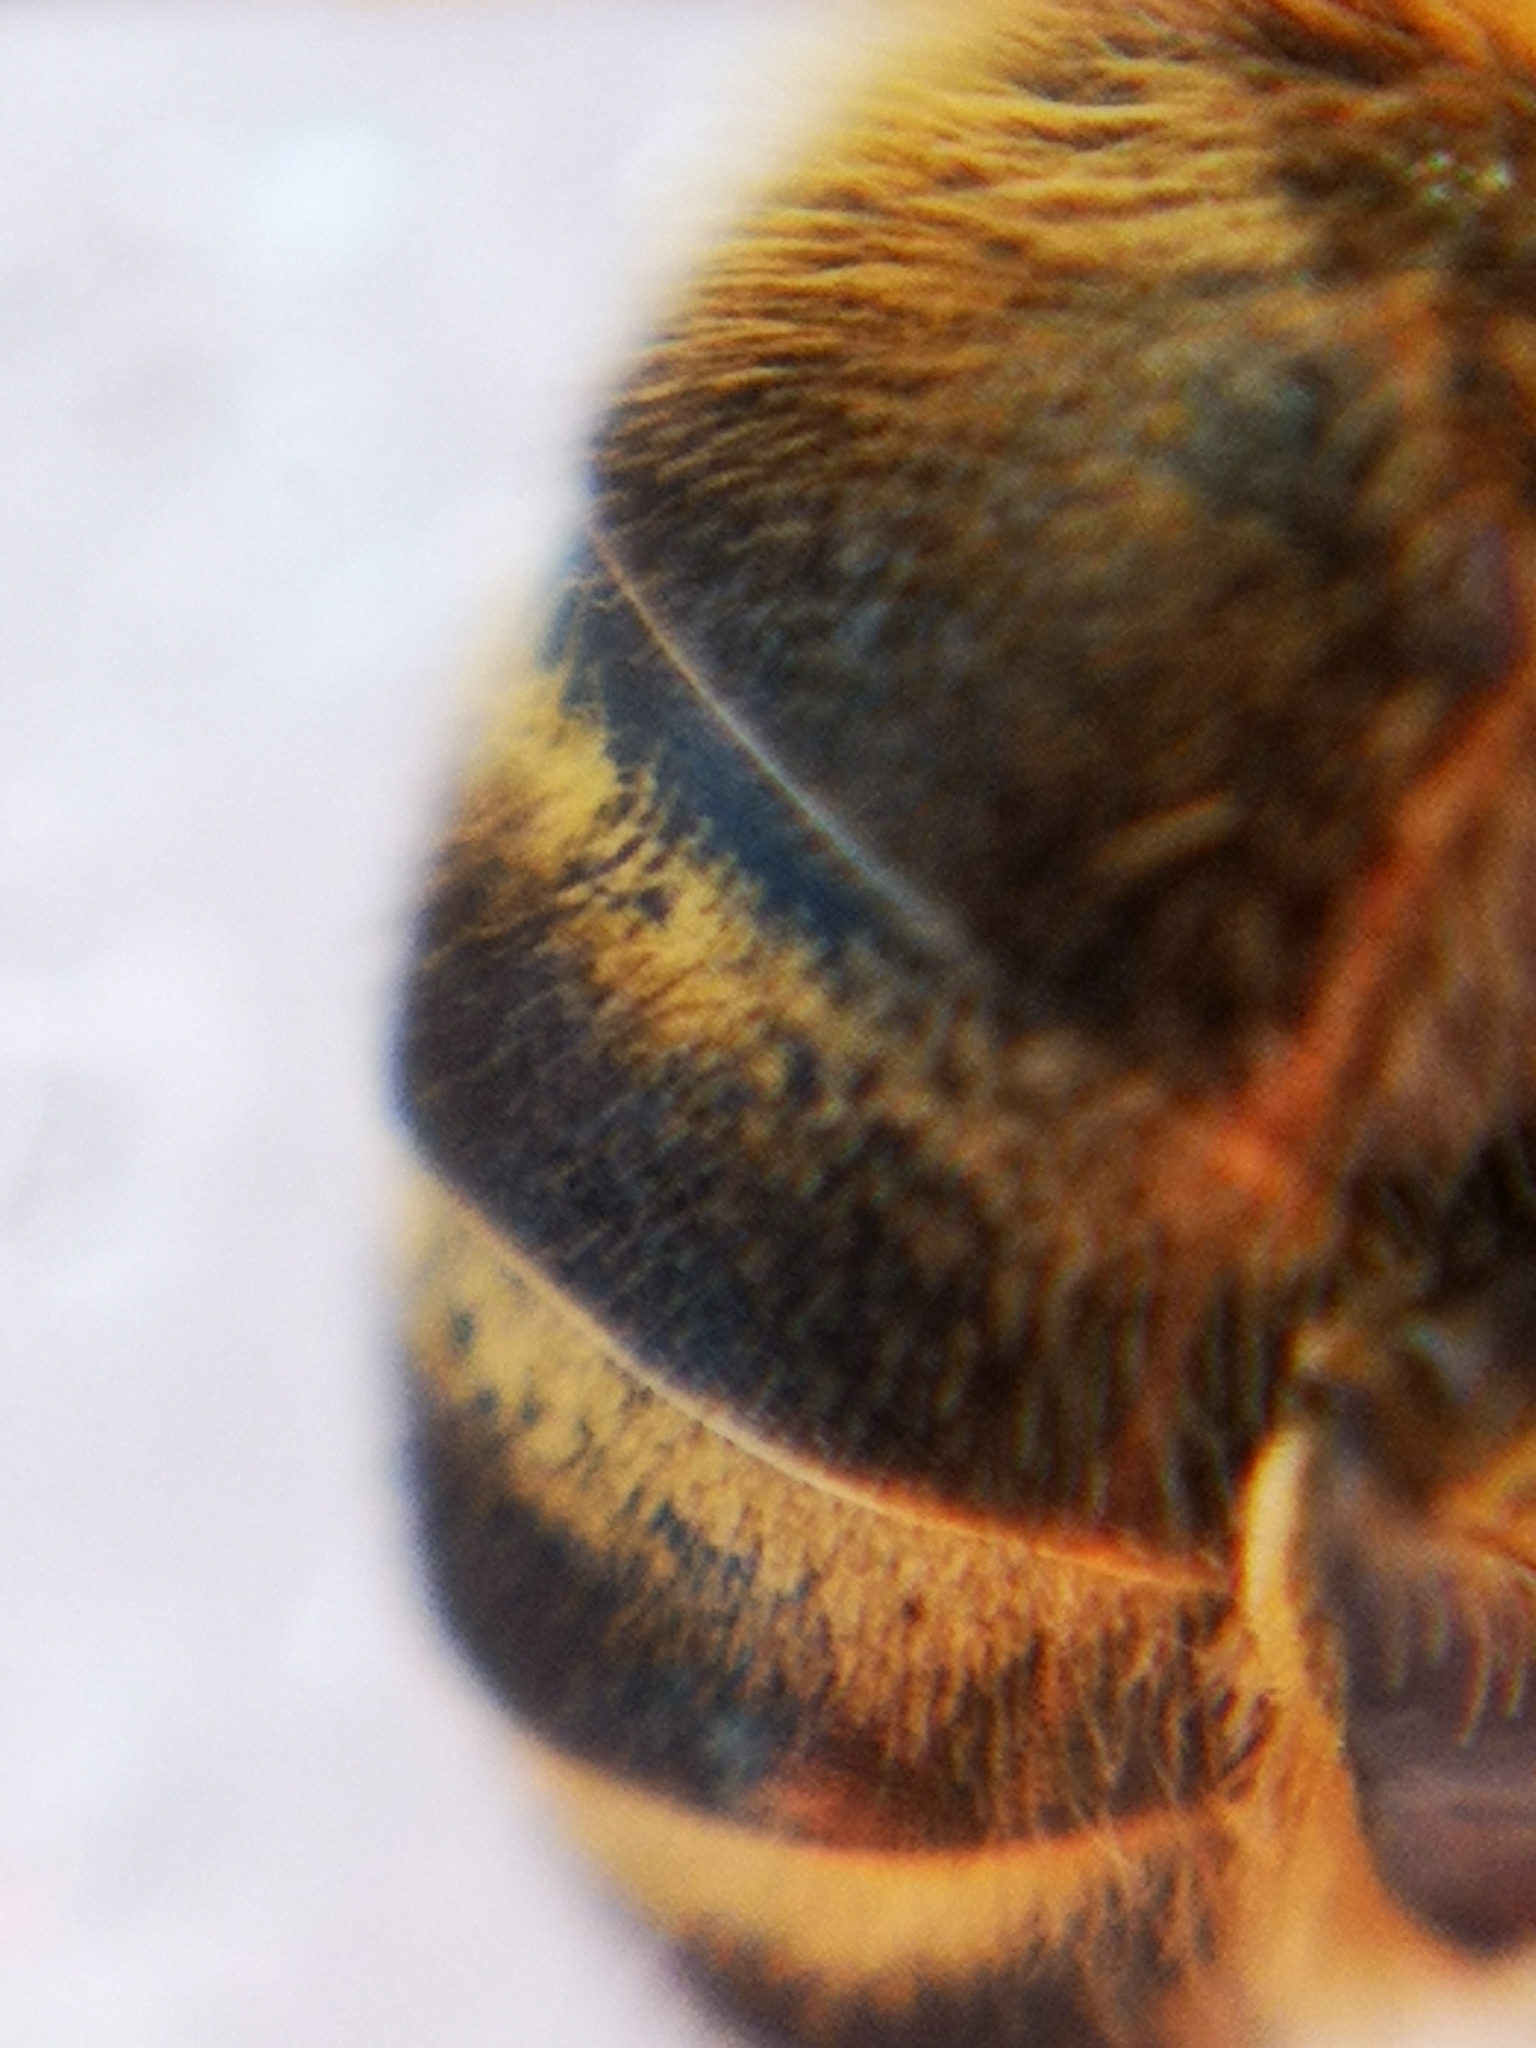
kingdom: Animalia
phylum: Arthropoda
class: Insecta
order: Hymenoptera
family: Apidae
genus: Apis
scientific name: Apis mellifera
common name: Honey bee
